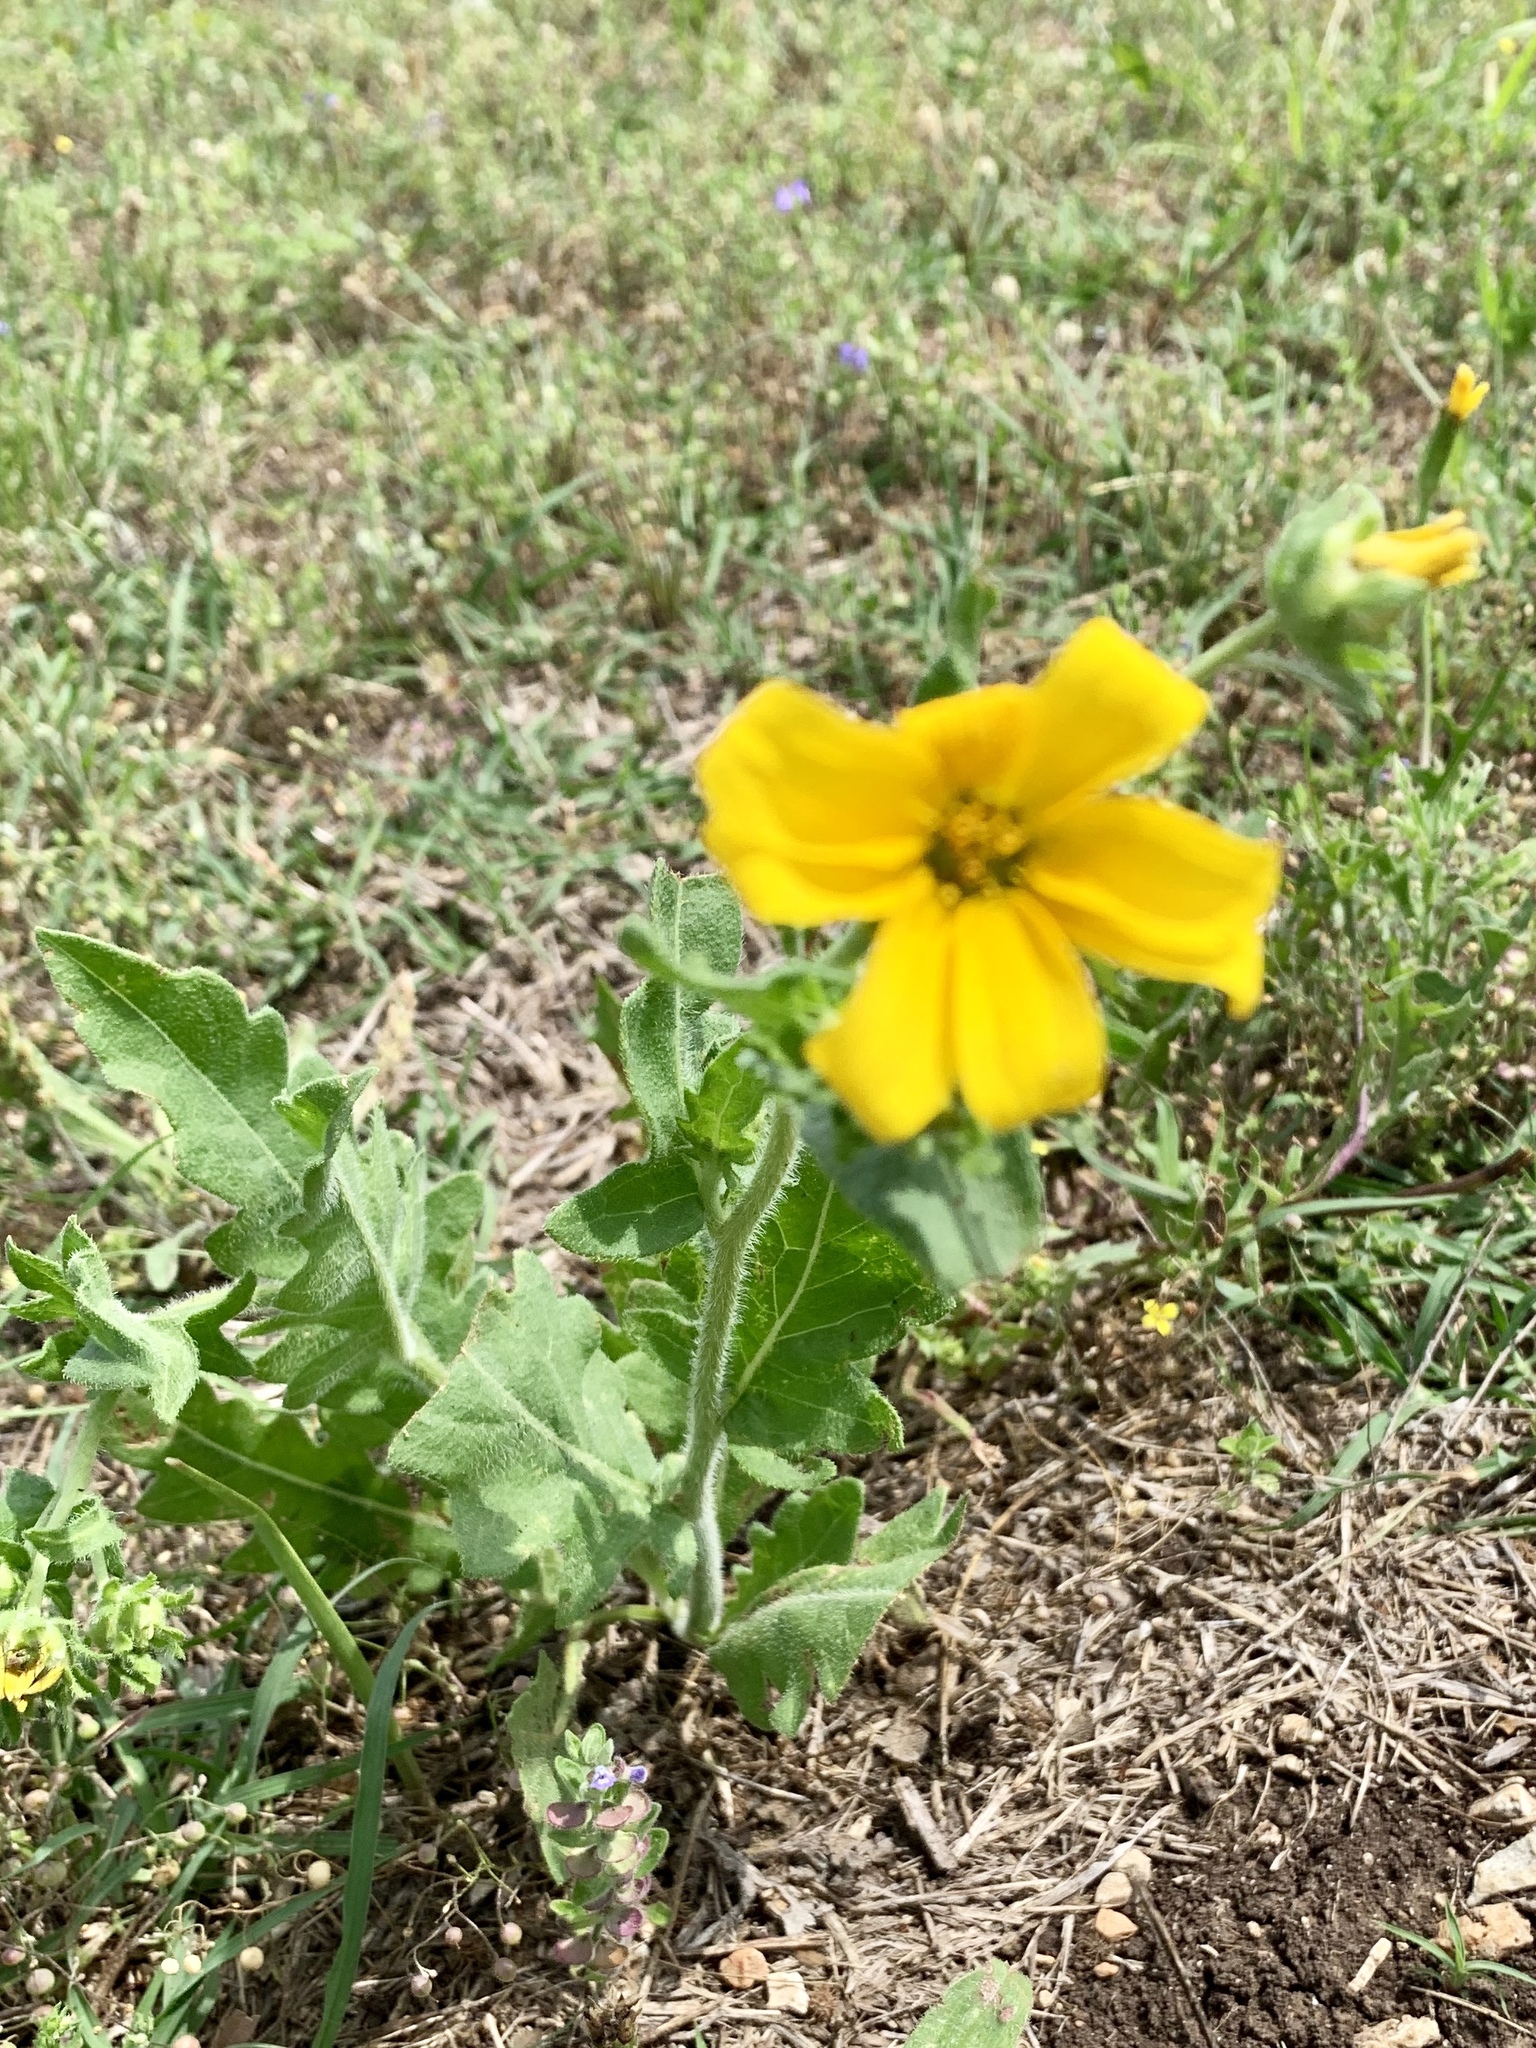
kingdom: Plantae
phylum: Tracheophyta
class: Magnoliopsida
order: Asterales
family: Asteraceae
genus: Engelmannia
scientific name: Engelmannia peristenia
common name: Engelmann's daisy
